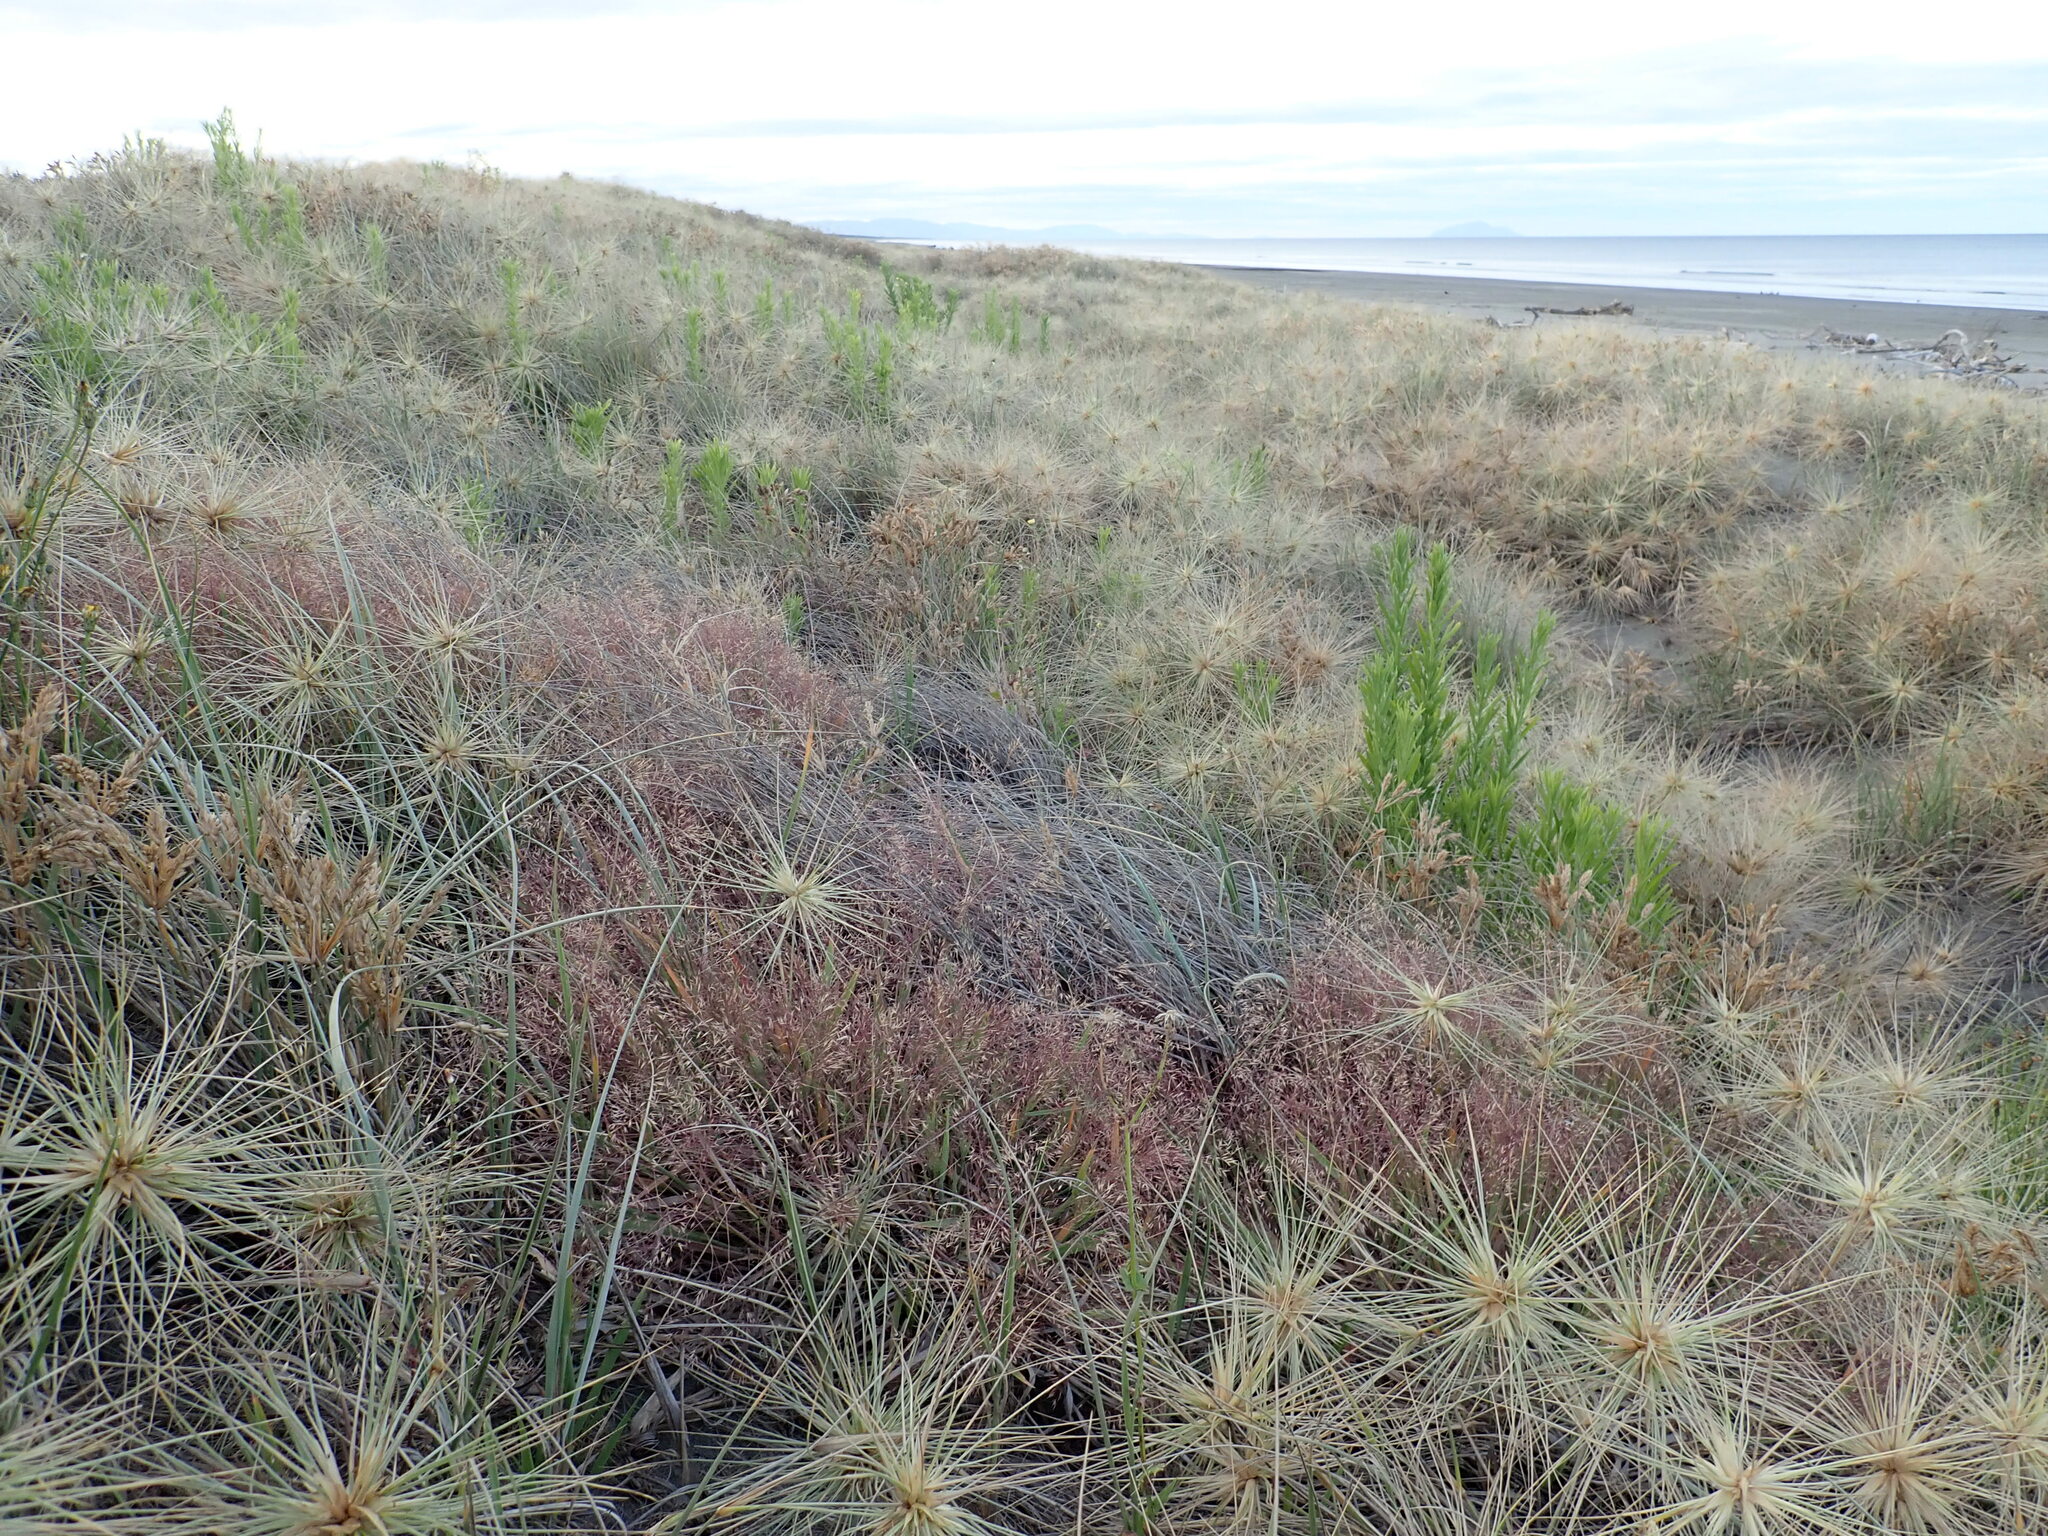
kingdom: Plantae
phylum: Tracheophyta
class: Magnoliopsida
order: Asterales
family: Asteraceae
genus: Erigeron
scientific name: Erigeron sumatrensis
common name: Daisy
